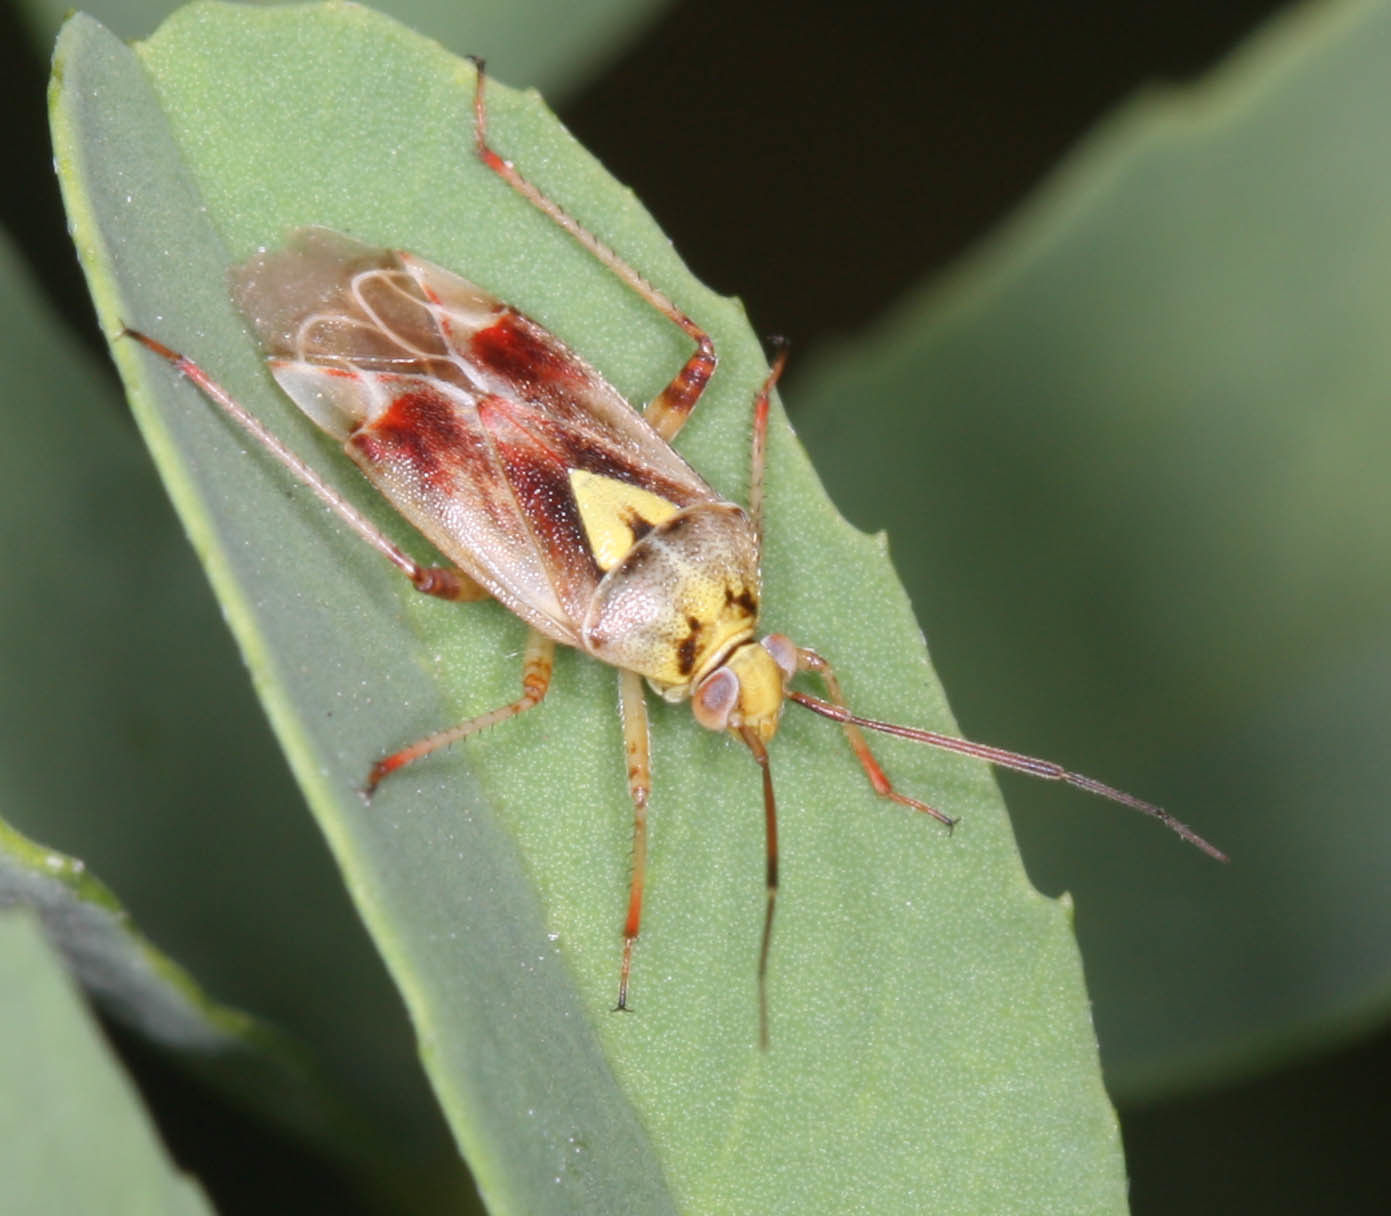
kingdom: Animalia
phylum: Arthropoda
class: Insecta
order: Hemiptera
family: Miridae
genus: Lygus
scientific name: Lygus hesperus
